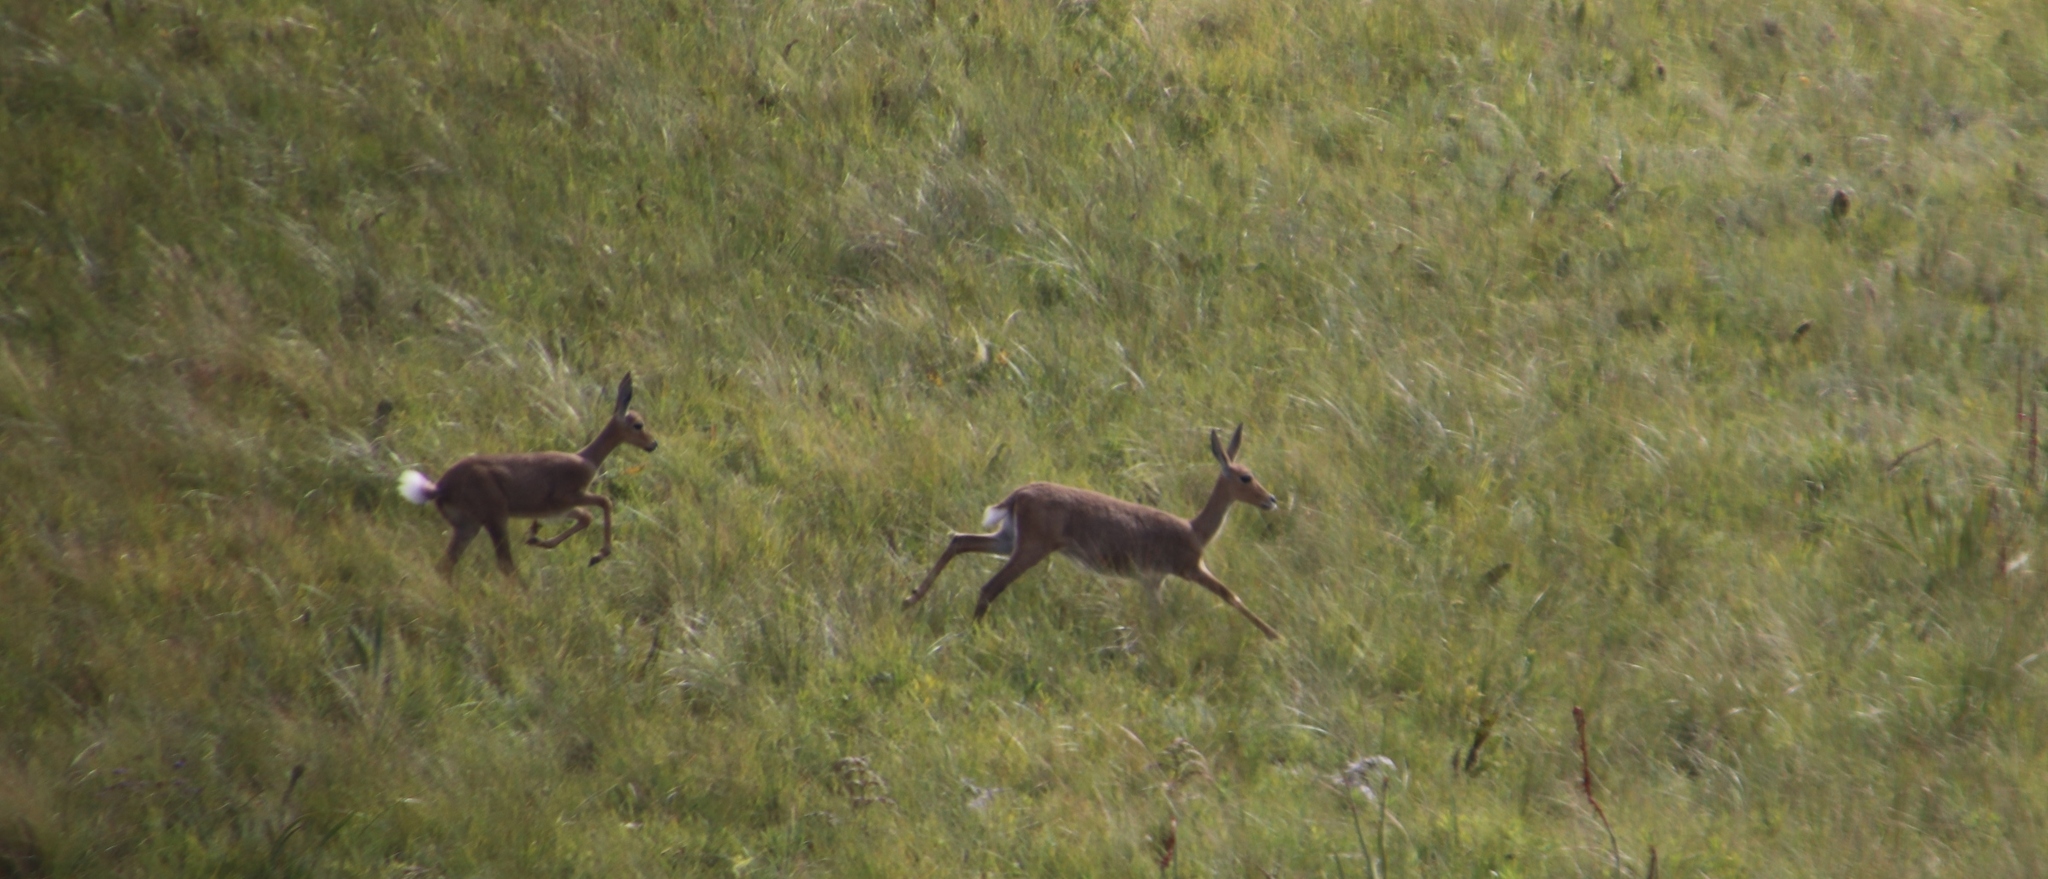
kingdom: Animalia
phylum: Chordata
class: Mammalia
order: Artiodactyla
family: Bovidae
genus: Pelea
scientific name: Pelea capreolus
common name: Common rhebok
